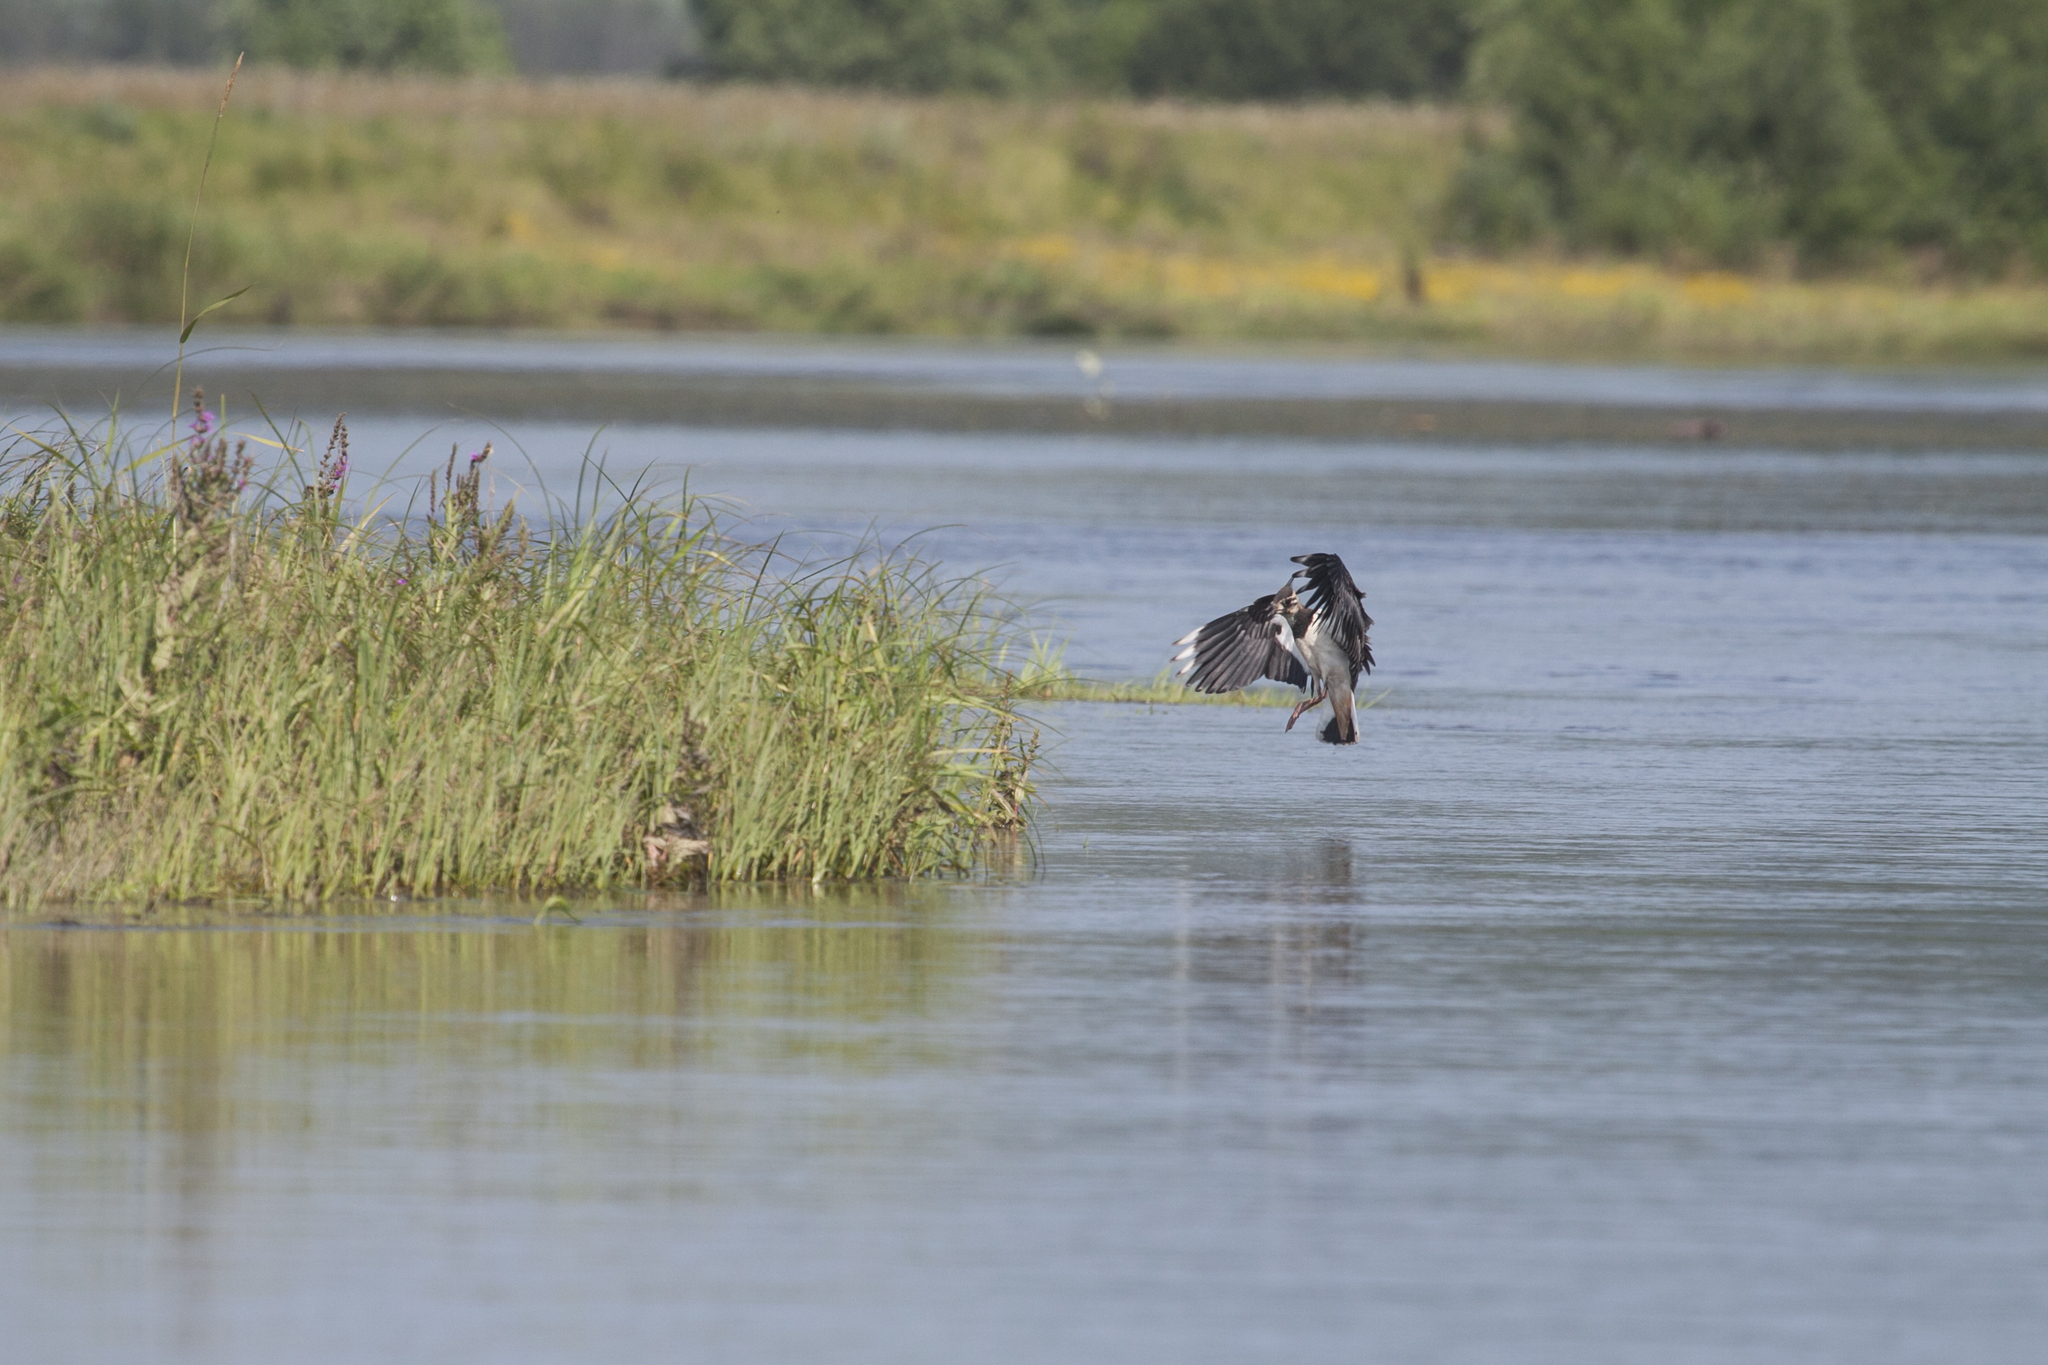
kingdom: Animalia
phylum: Chordata
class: Aves
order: Charadriiformes
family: Charadriidae
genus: Vanellus
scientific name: Vanellus vanellus
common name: Northern lapwing
